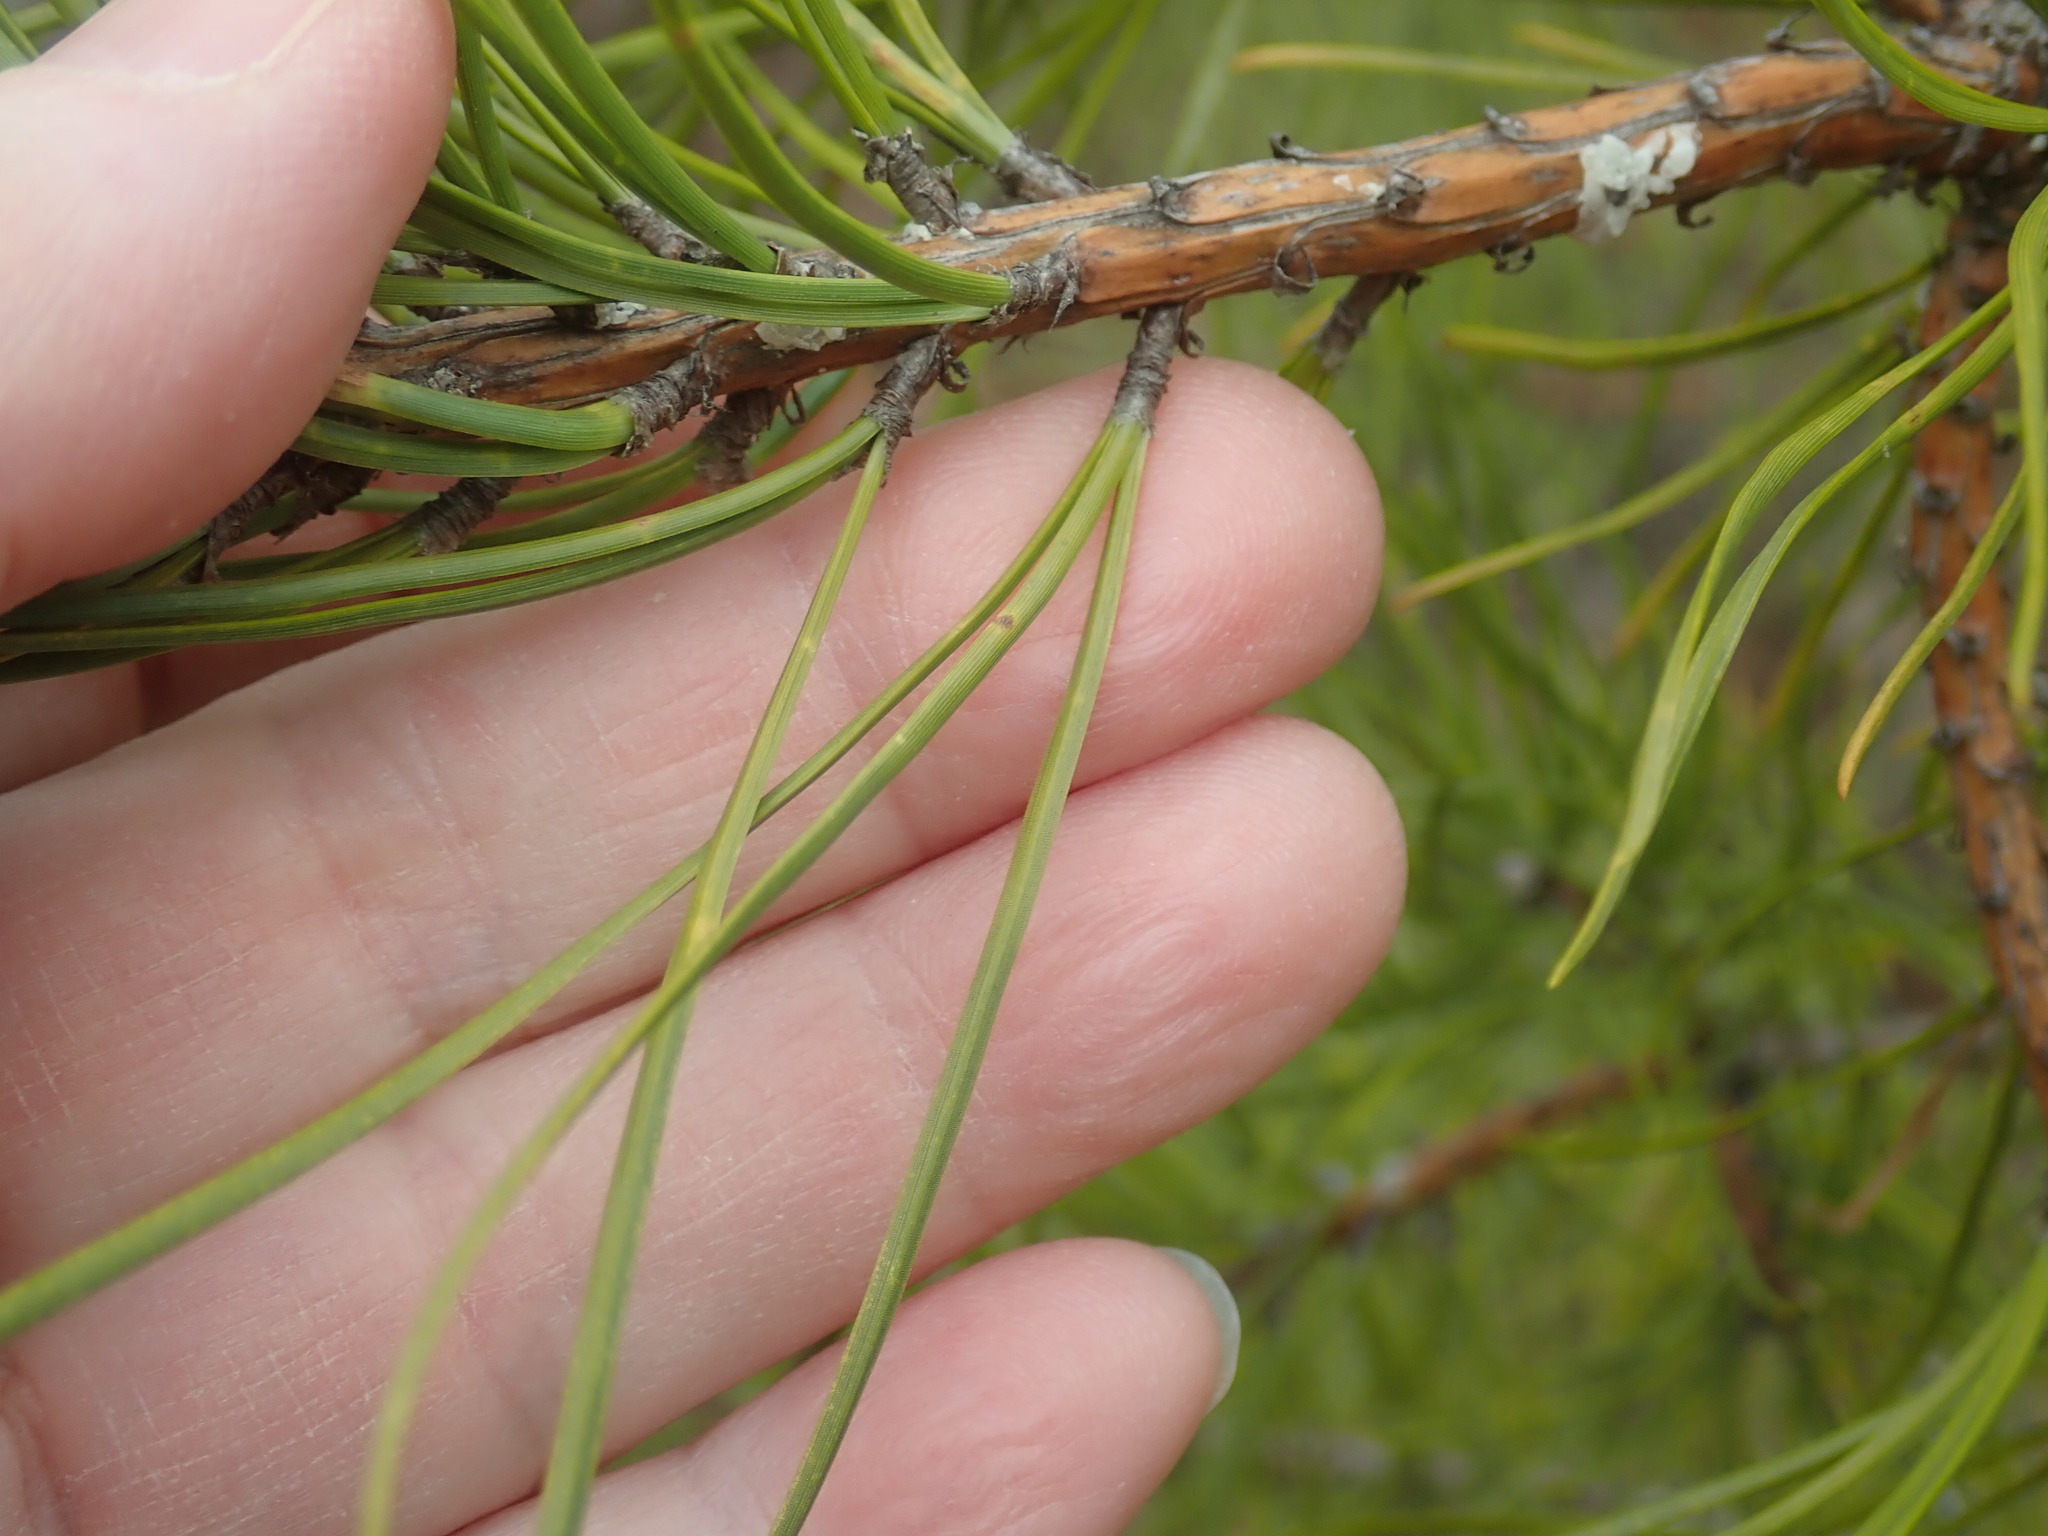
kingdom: Plantae
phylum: Tracheophyta
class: Pinopsida
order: Pinales
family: Pinaceae
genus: Pinus
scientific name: Pinus rigida
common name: Pitch pine
